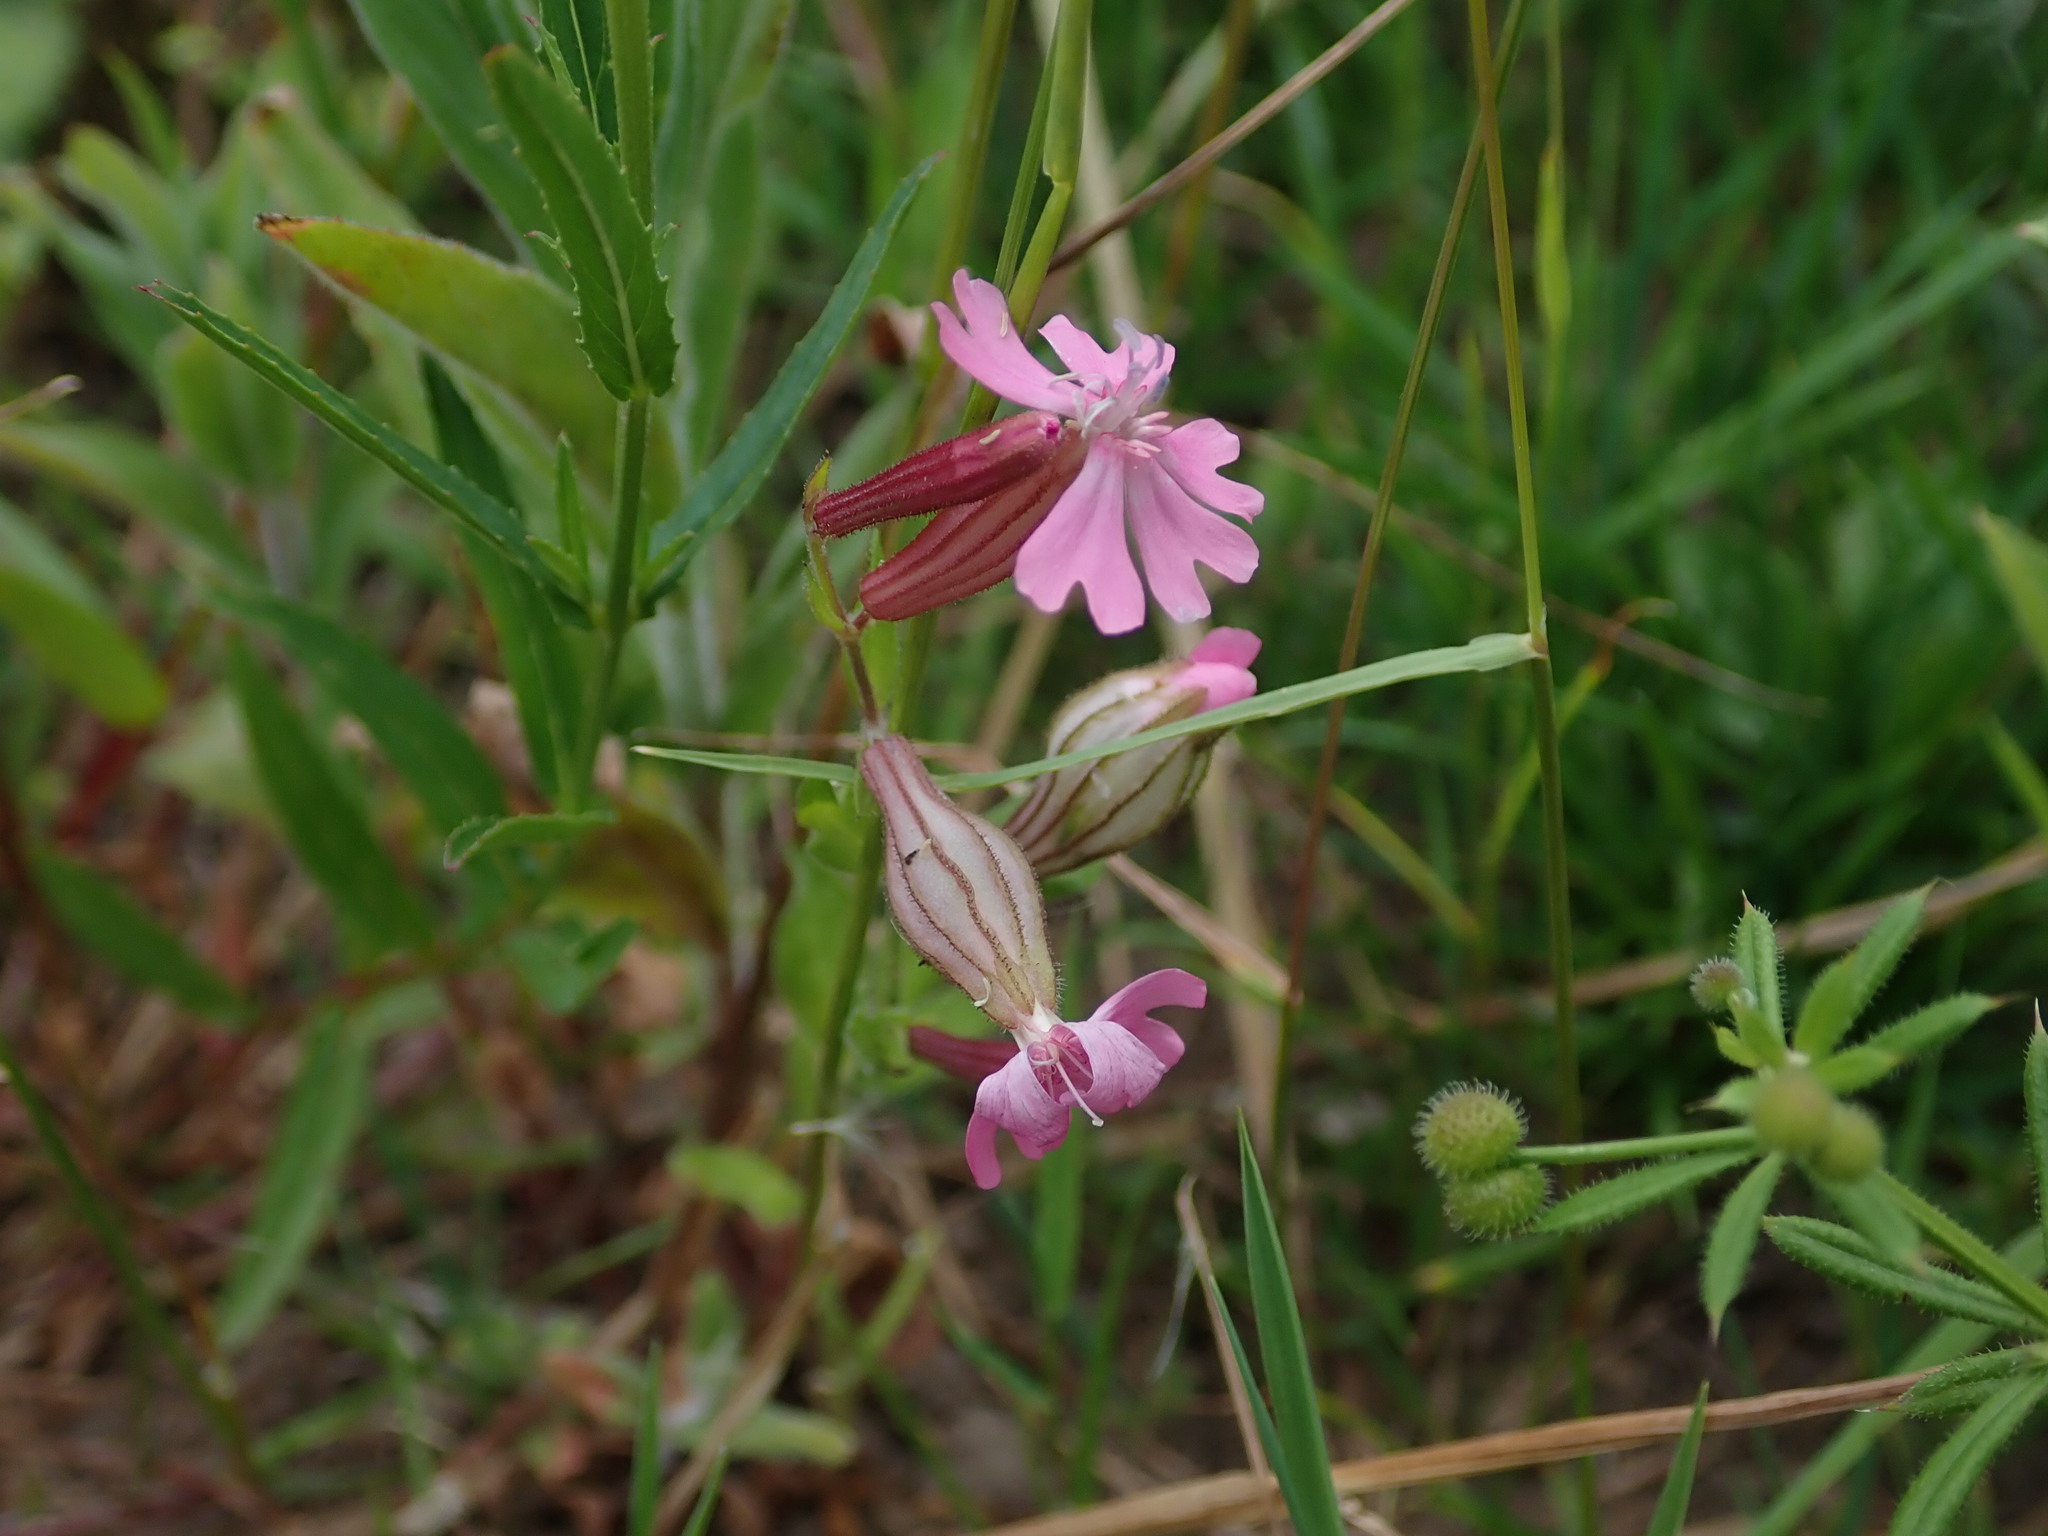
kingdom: Plantae
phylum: Tracheophyta
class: Magnoliopsida
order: Caryophyllales
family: Caryophyllaceae
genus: Silene
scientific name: Silene dioica
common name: Red campion
